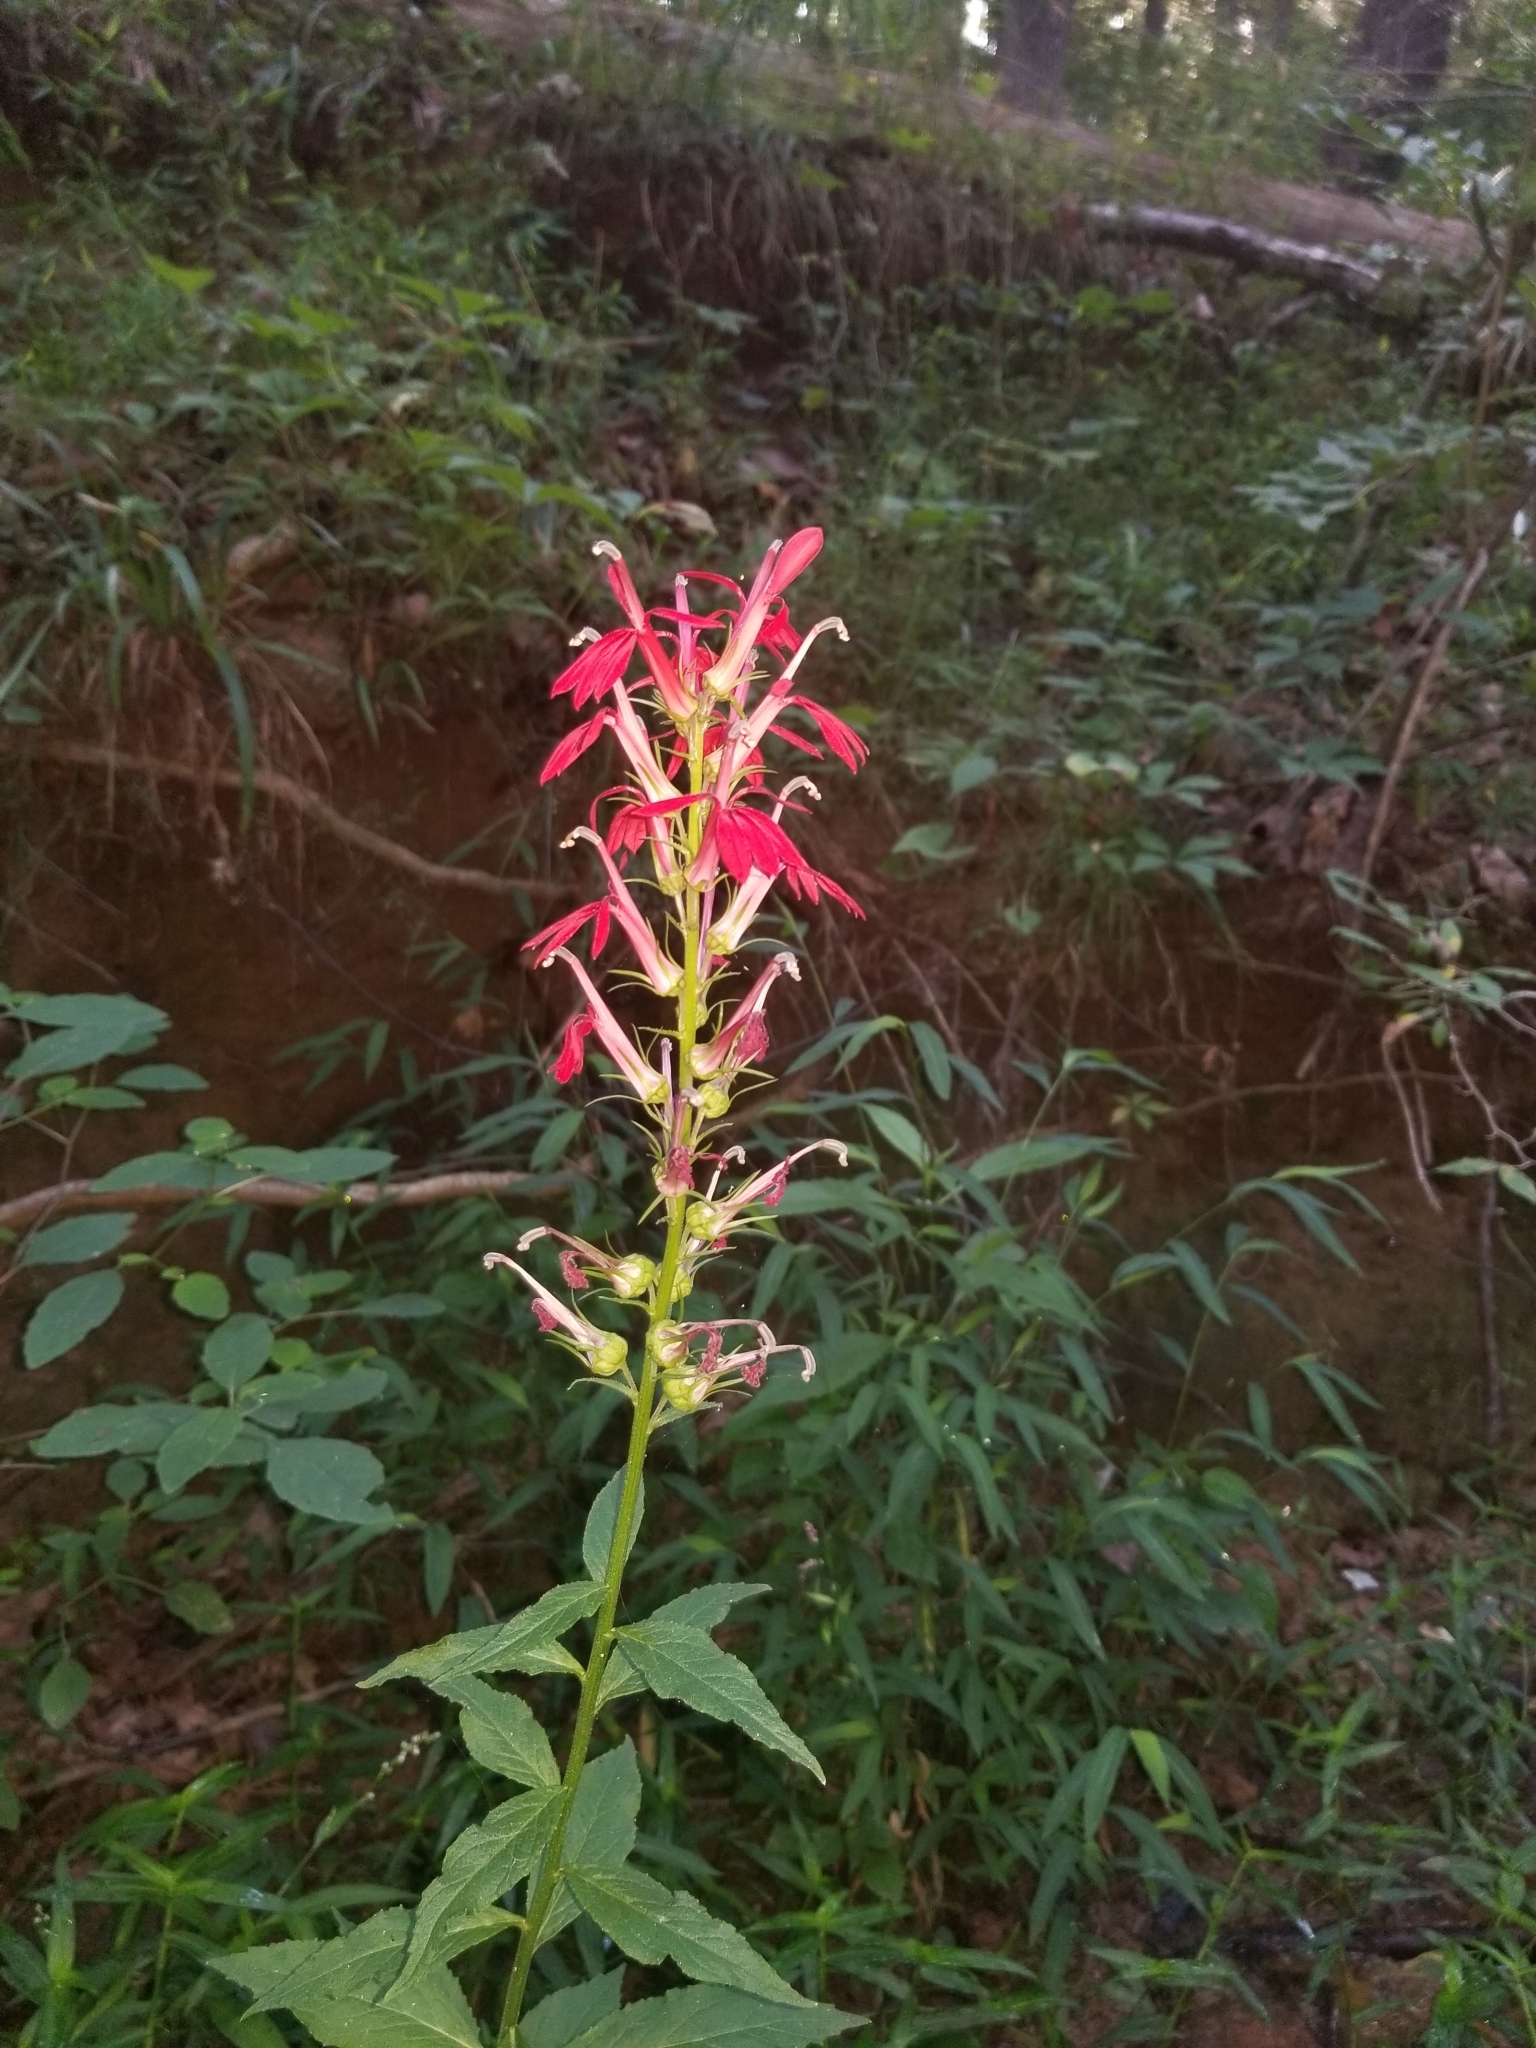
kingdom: Plantae
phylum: Tracheophyta
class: Magnoliopsida
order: Asterales
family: Campanulaceae
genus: Lobelia
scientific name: Lobelia cardinalis
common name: Cardinal flower
